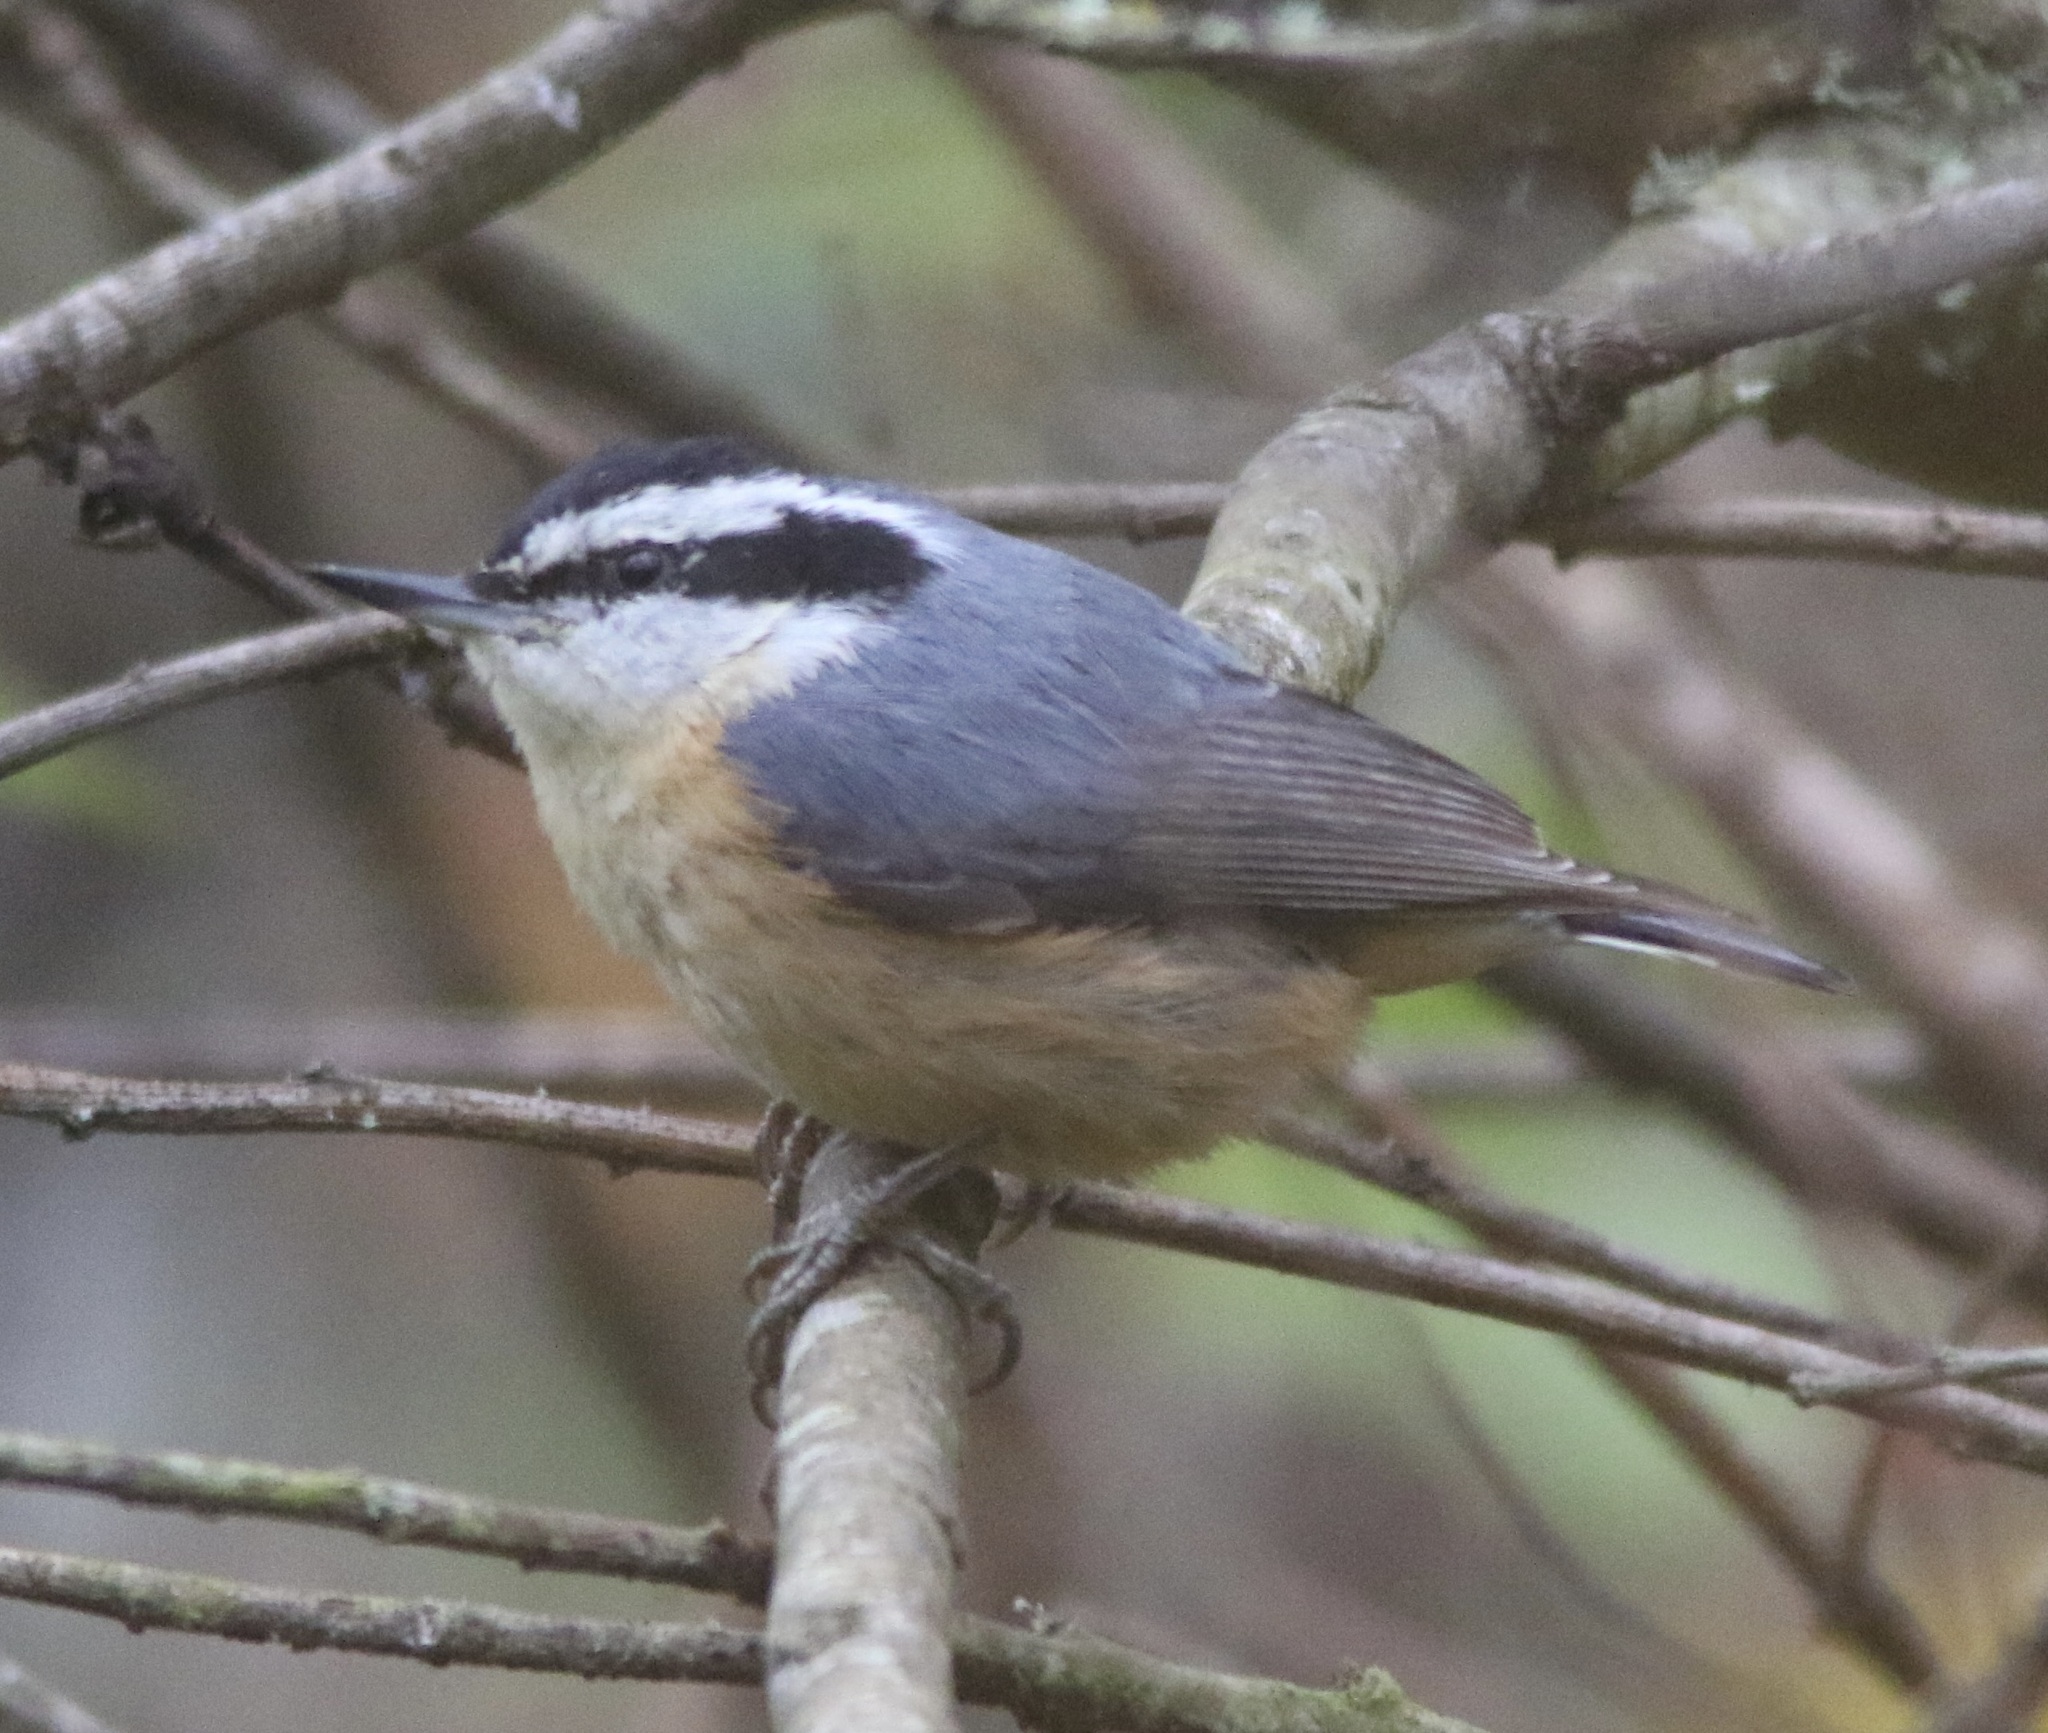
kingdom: Animalia
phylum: Chordata
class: Aves
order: Passeriformes
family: Sittidae
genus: Sitta
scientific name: Sitta canadensis
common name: Red-breasted nuthatch
